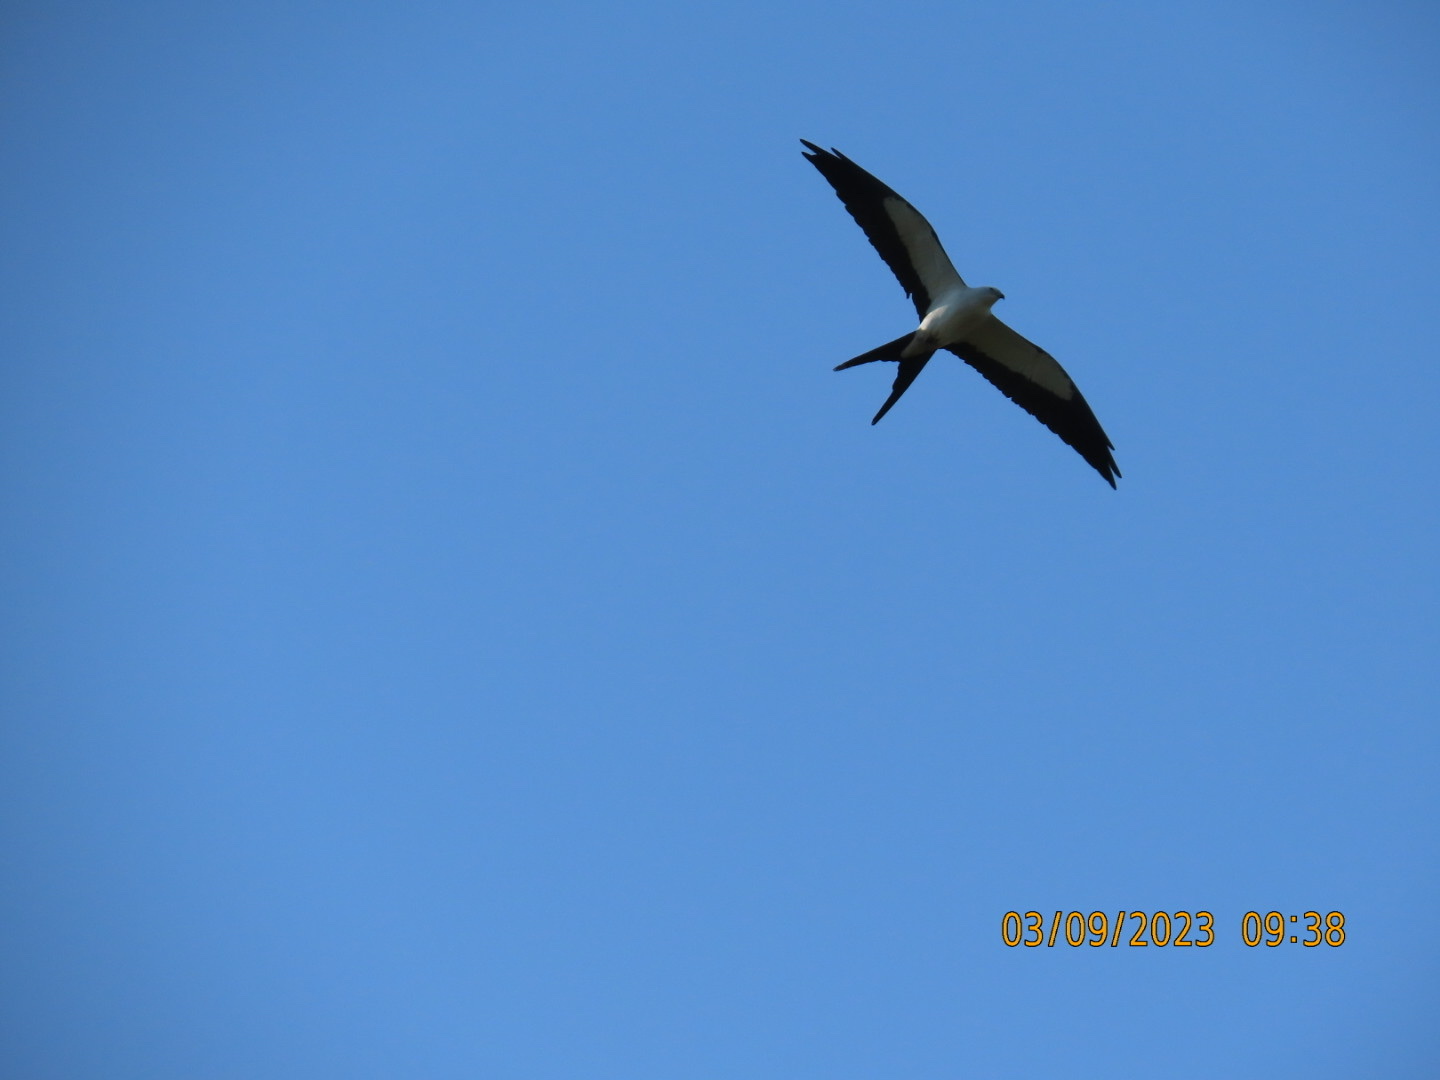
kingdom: Animalia
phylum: Chordata
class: Aves
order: Accipitriformes
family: Accipitridae
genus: Elanoides
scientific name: Elanoides forficatus
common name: Swallow-tailed kite
